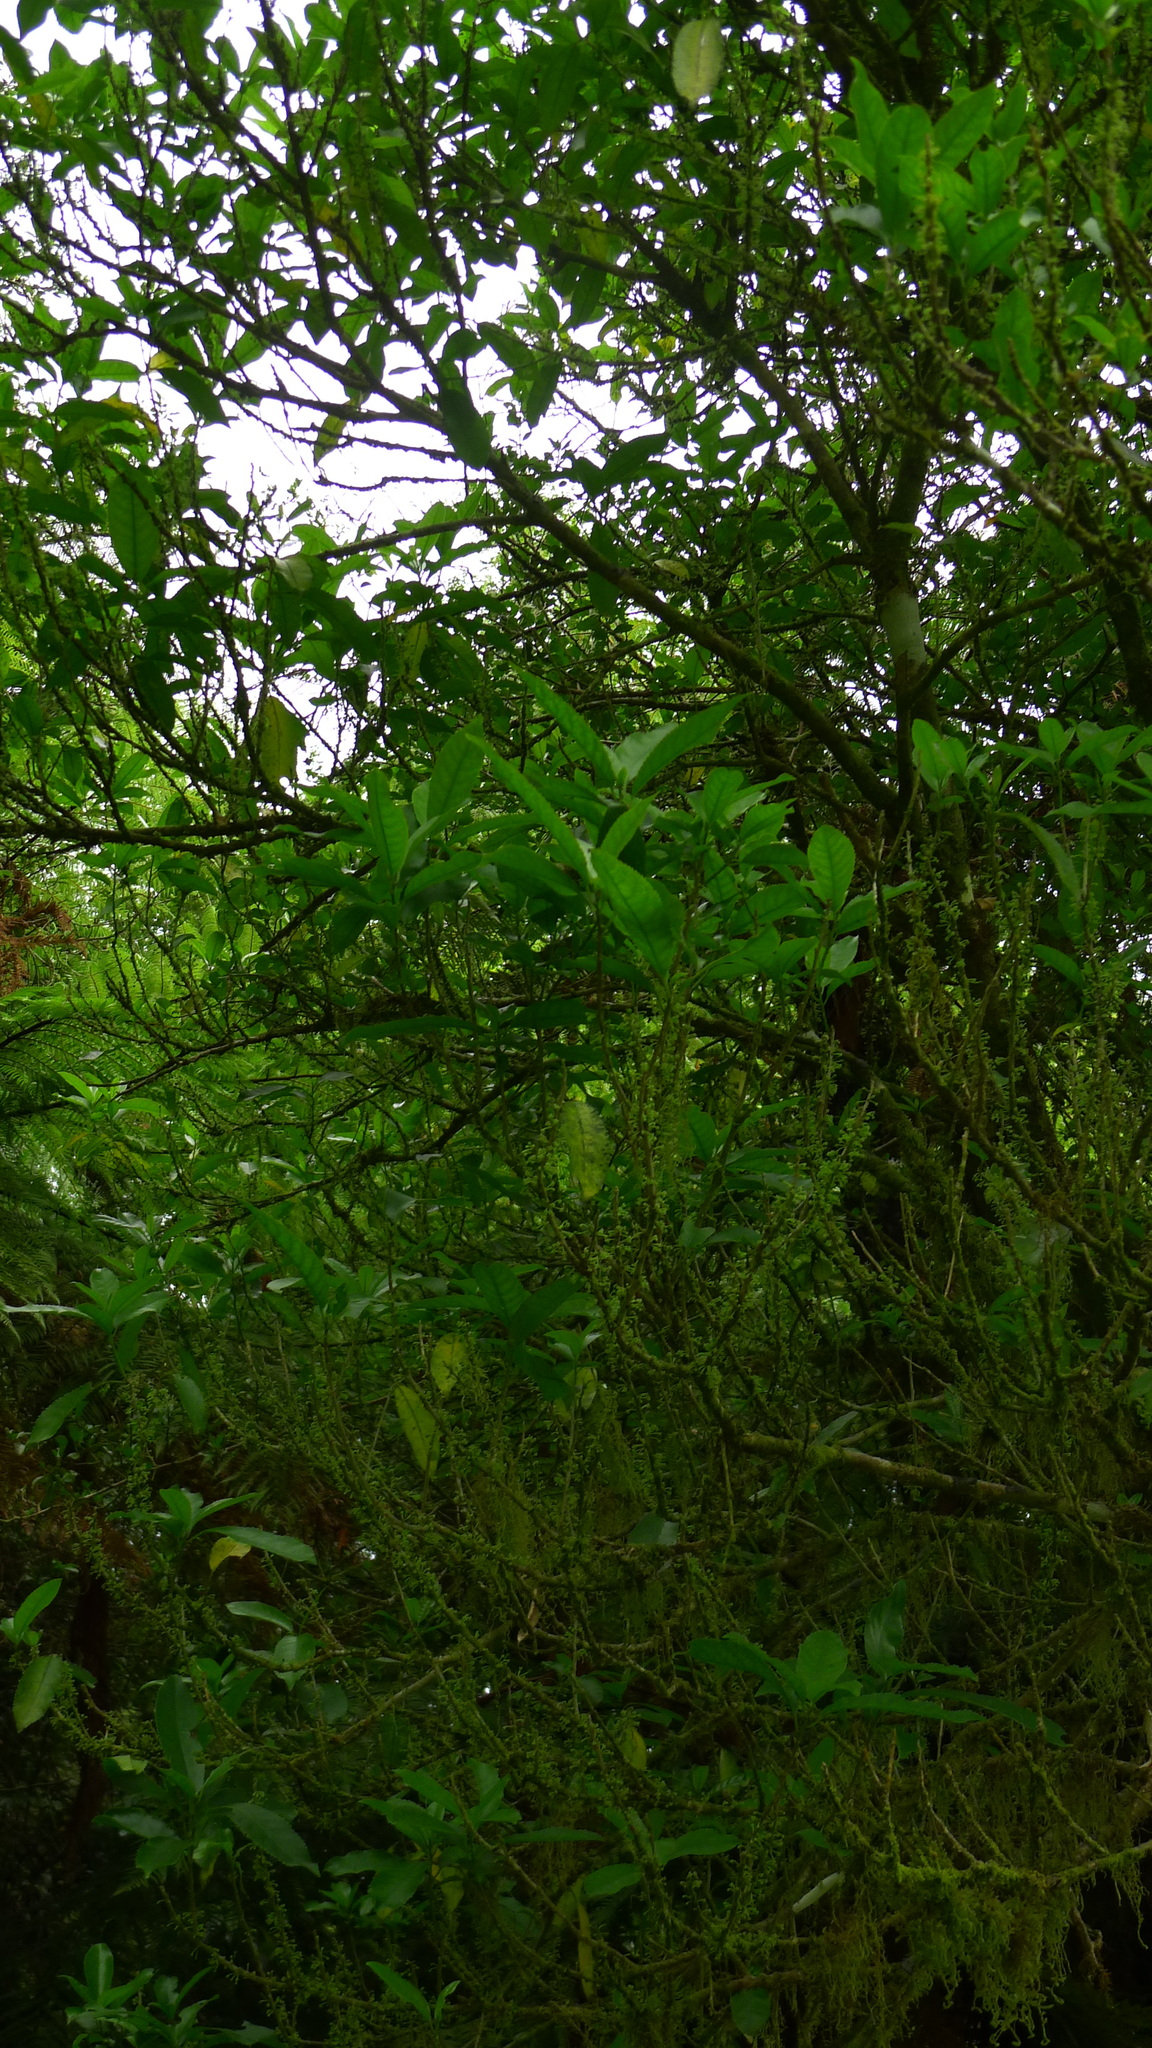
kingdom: Plantae
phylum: Tracheophyta
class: Magnoliopsida
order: Malpighiales
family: Violaceae
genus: Melicytus
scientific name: Melicytus ramiflorus
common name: Mahoe
